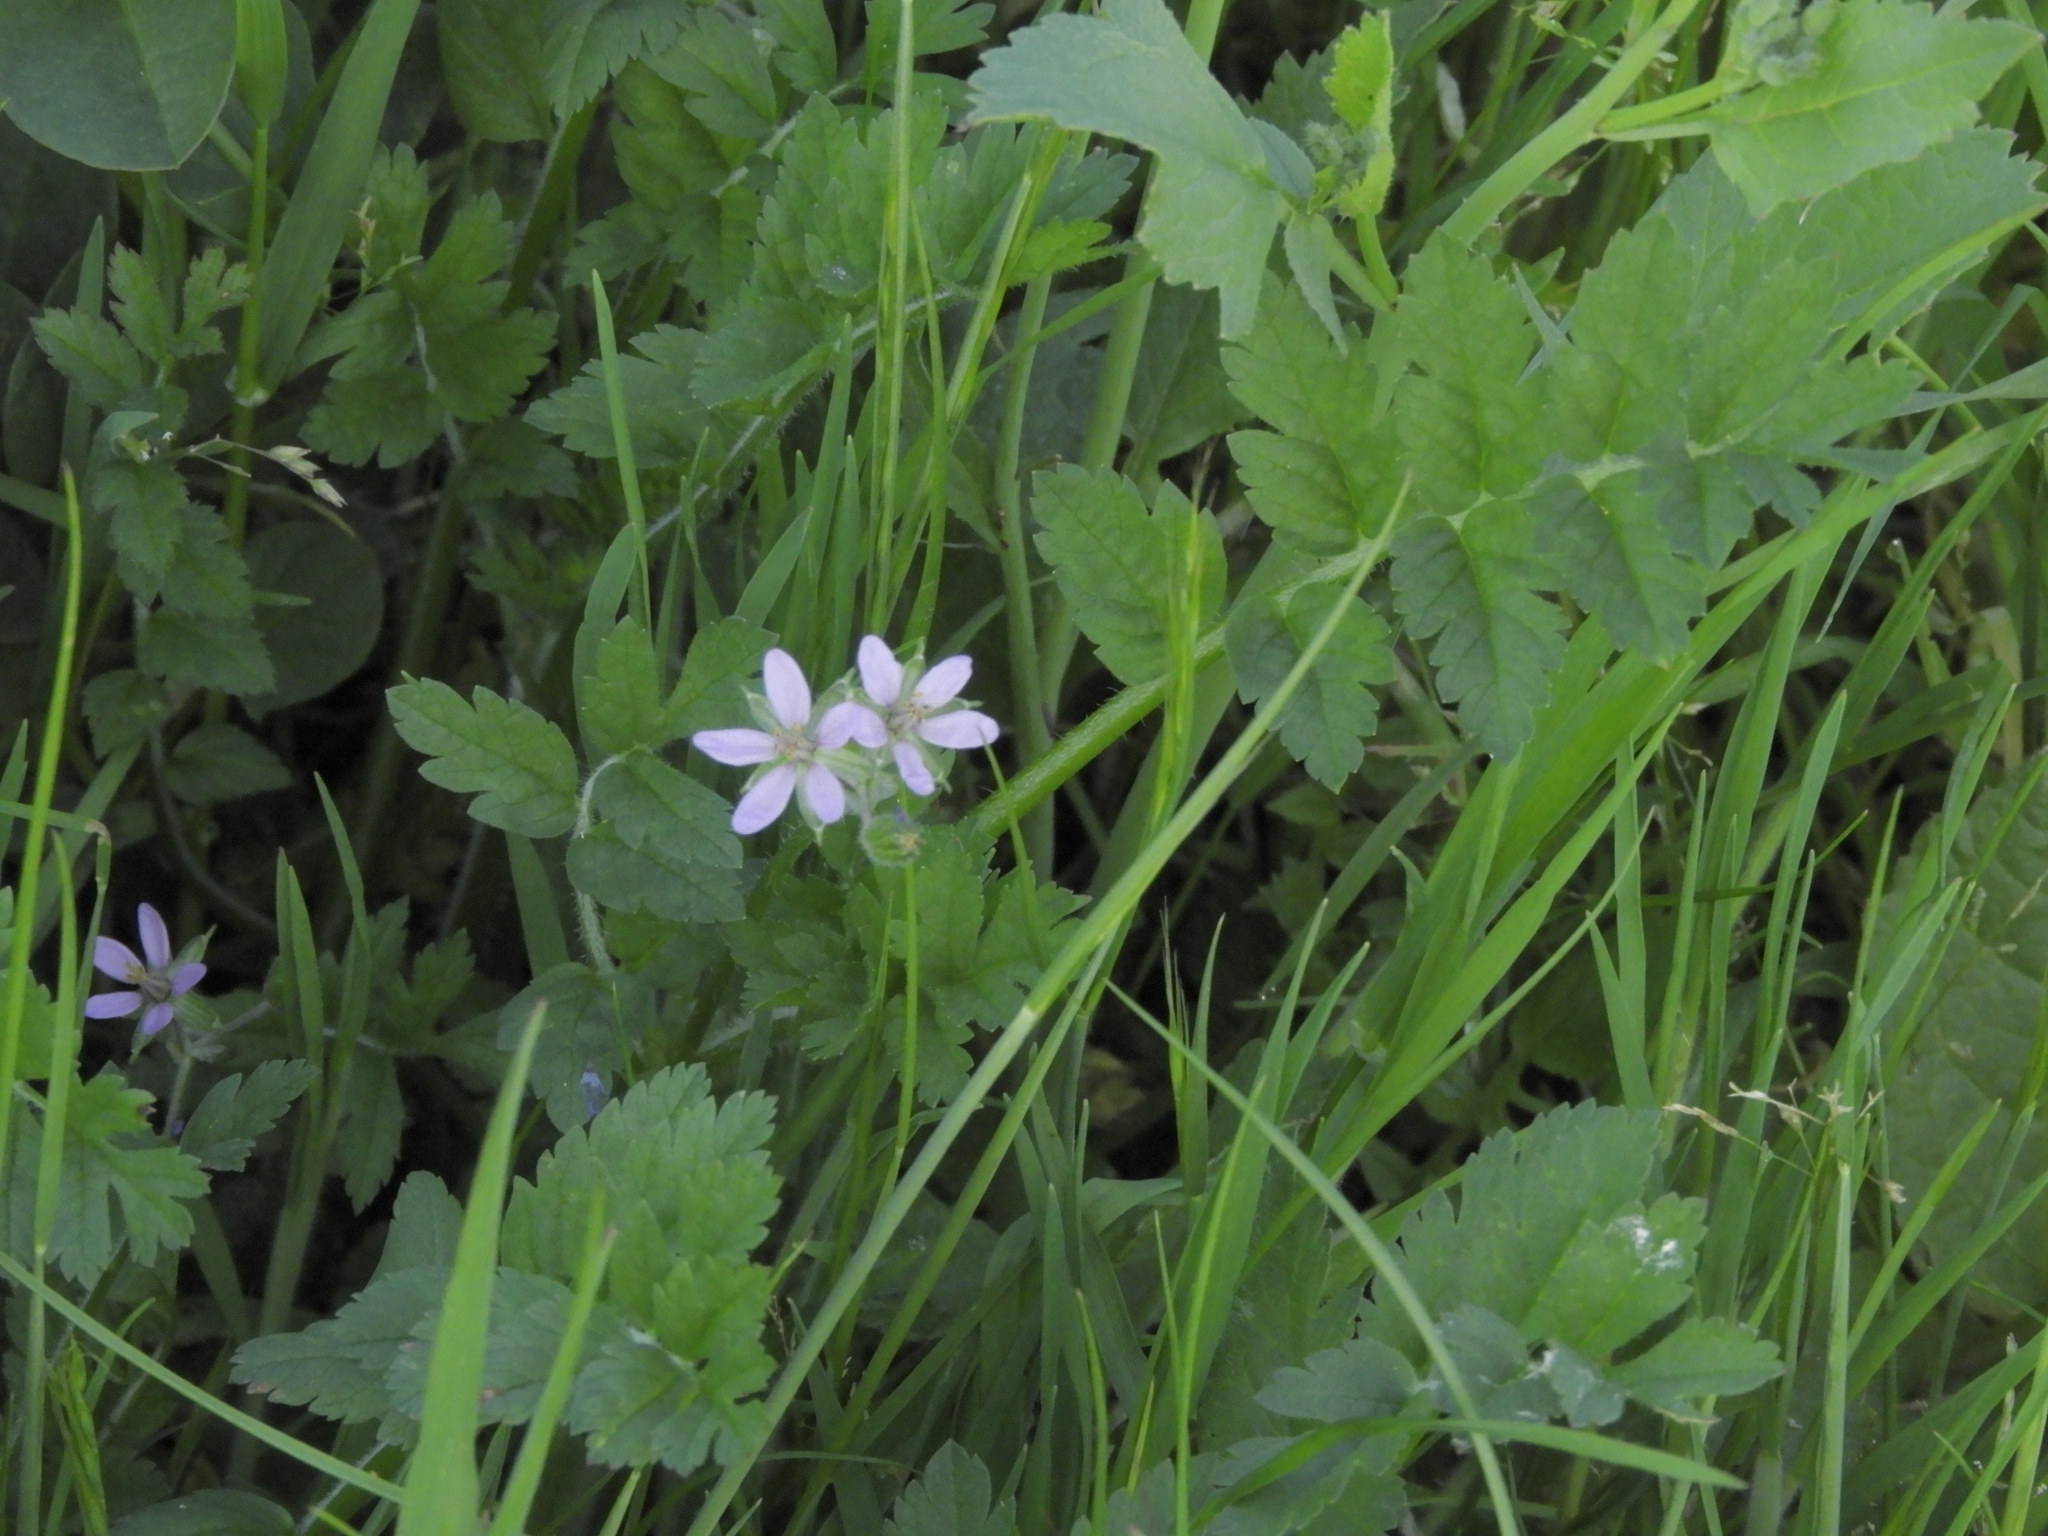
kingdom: Plantae
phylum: Tracheophyta
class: Magnoliopsida
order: Geraniales
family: Geraniaceae
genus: Erodium
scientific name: Erodium moschatum
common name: Musk stork's-bill
